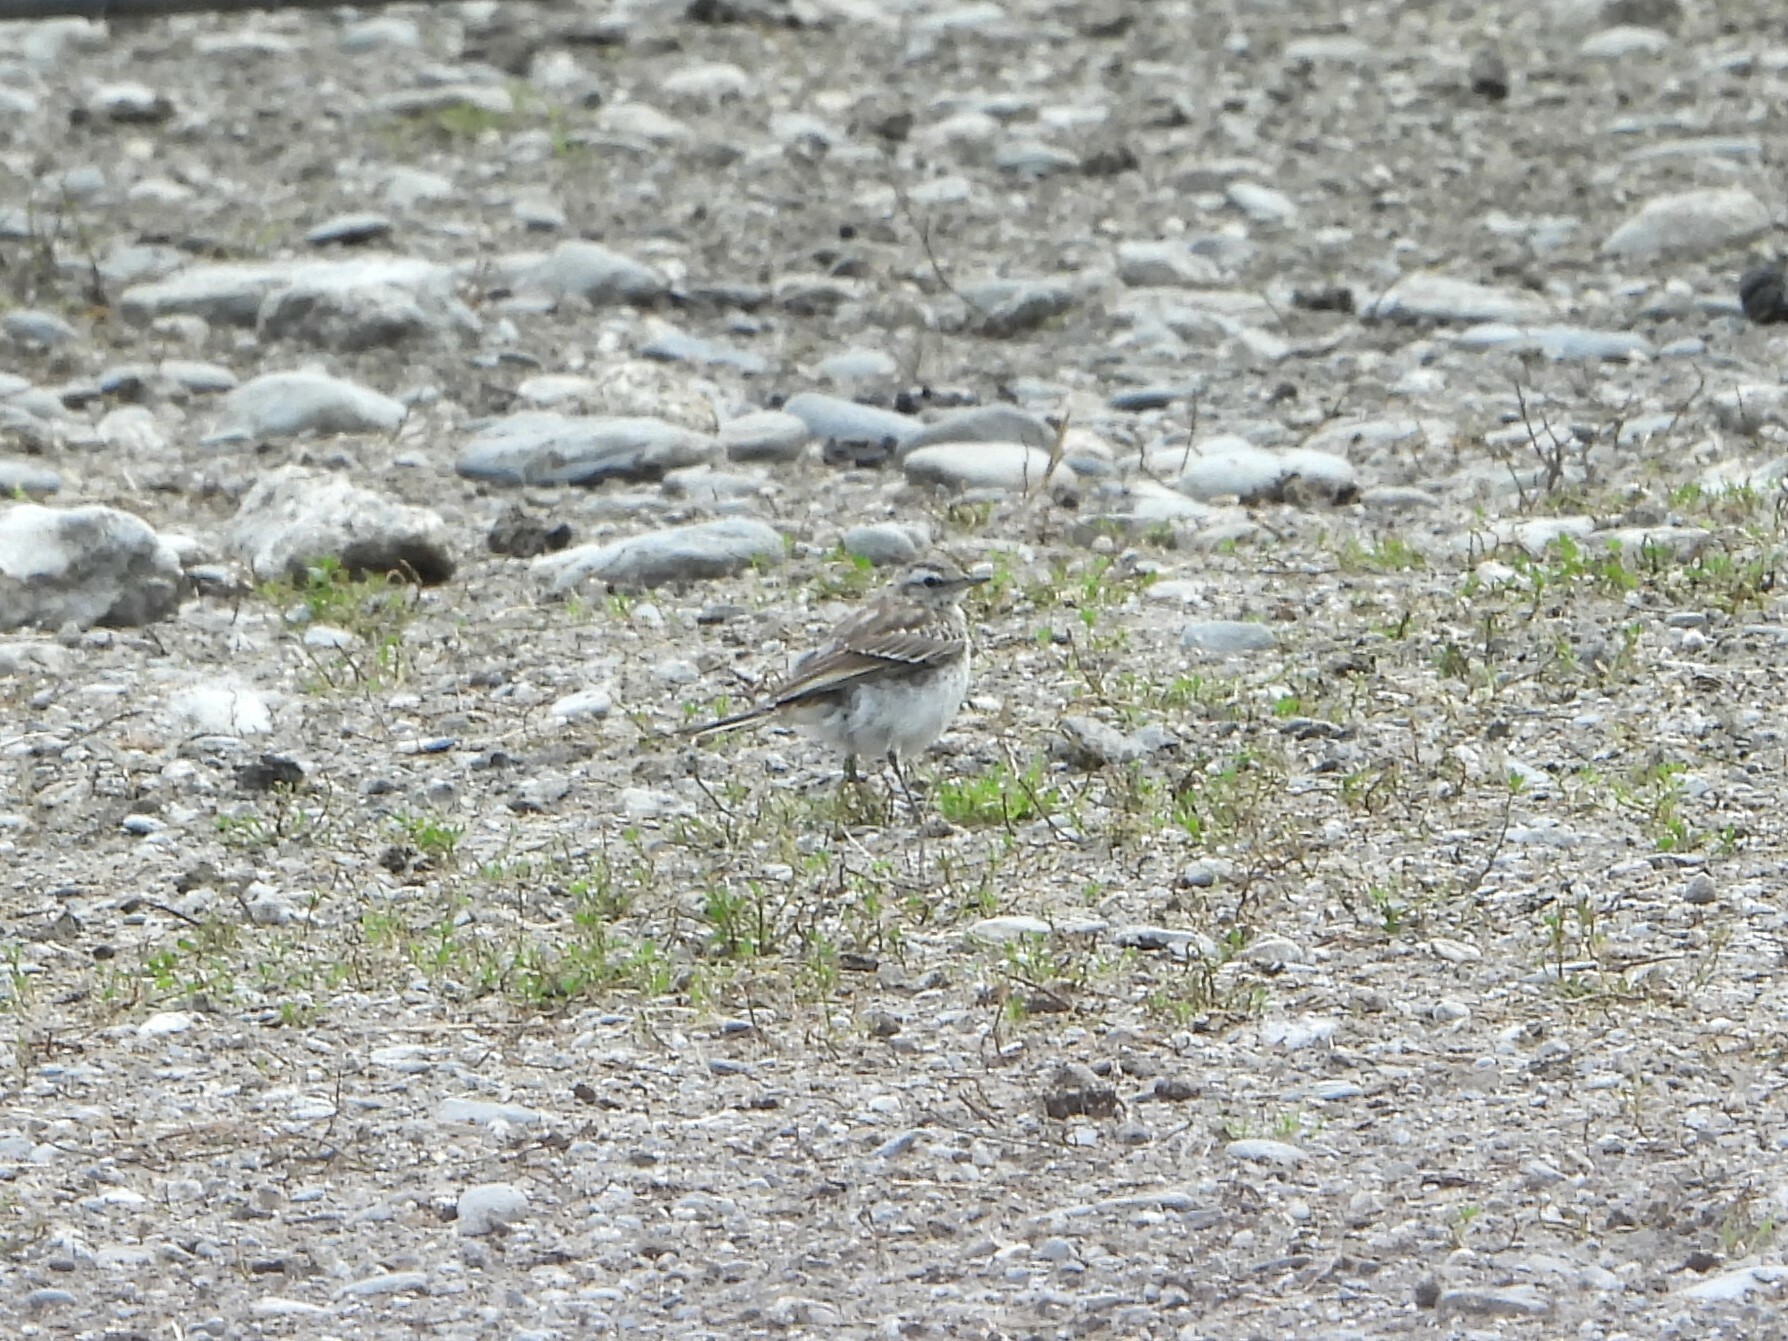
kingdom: Animalia
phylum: Chordata
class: Aves
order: Passeriformes
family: Motacillidae
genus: Anthus
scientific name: Anthus novaeseelandiae
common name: New zealand pipit
